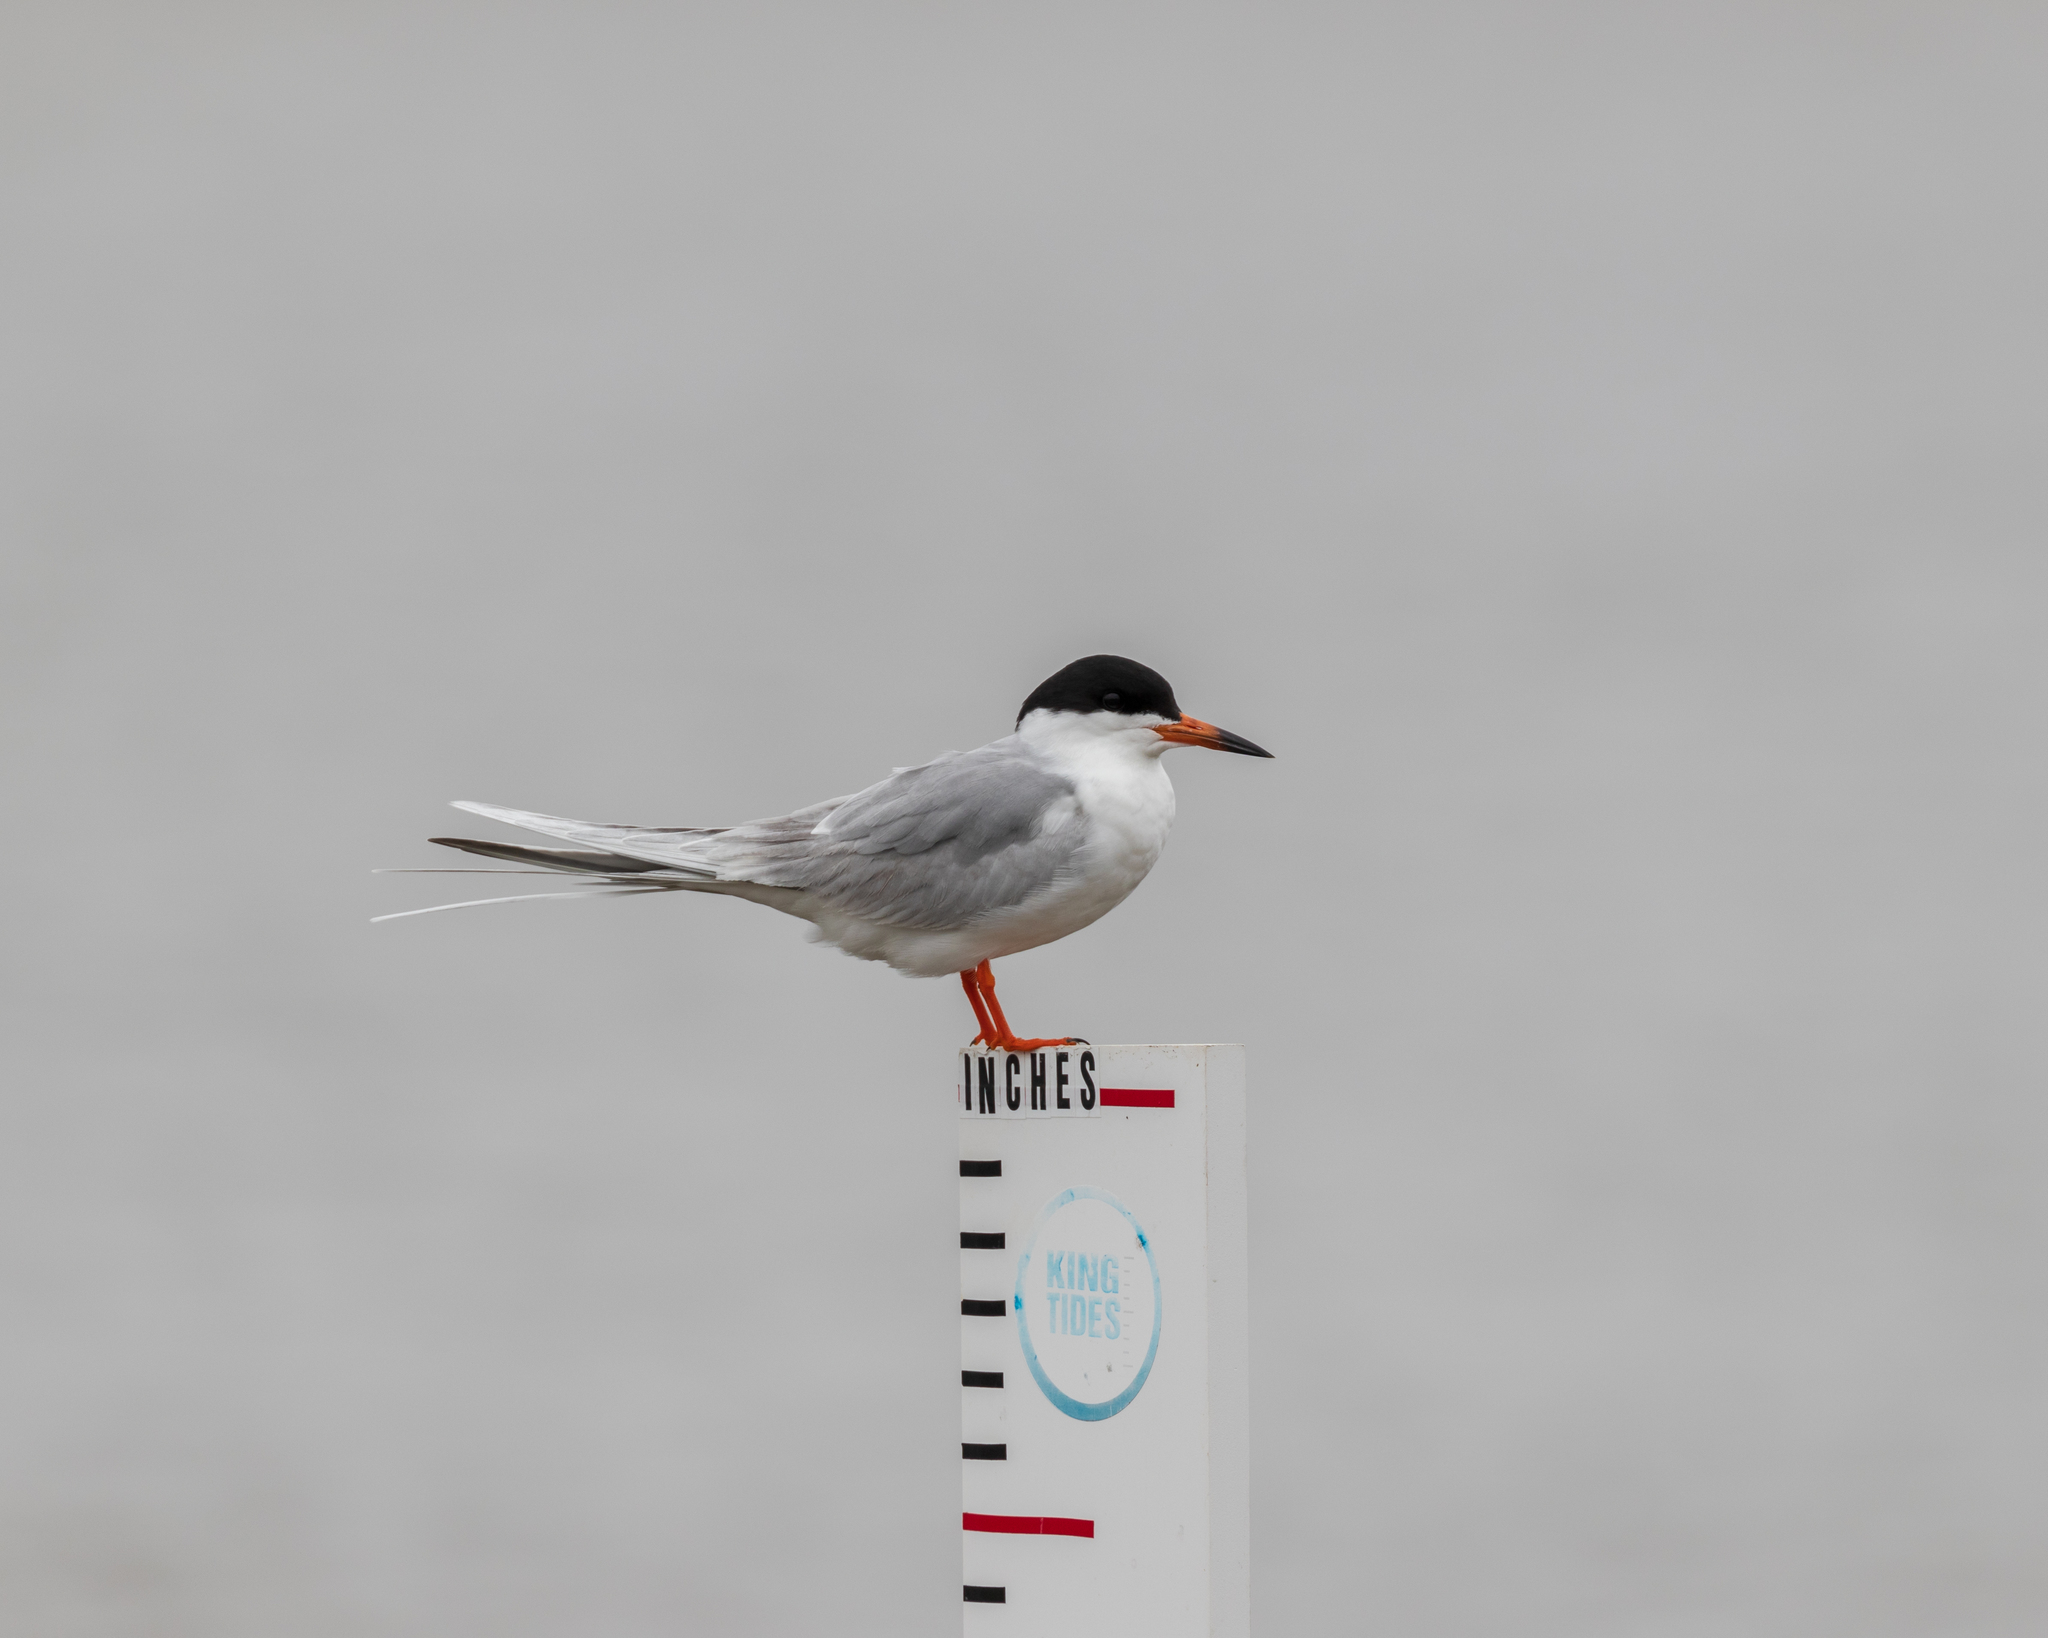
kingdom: Animalia
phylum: Chordata
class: Aves
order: Charadriiformes
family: Laridae
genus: Sterna
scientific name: Sterna forsteri
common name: Forster's tern
